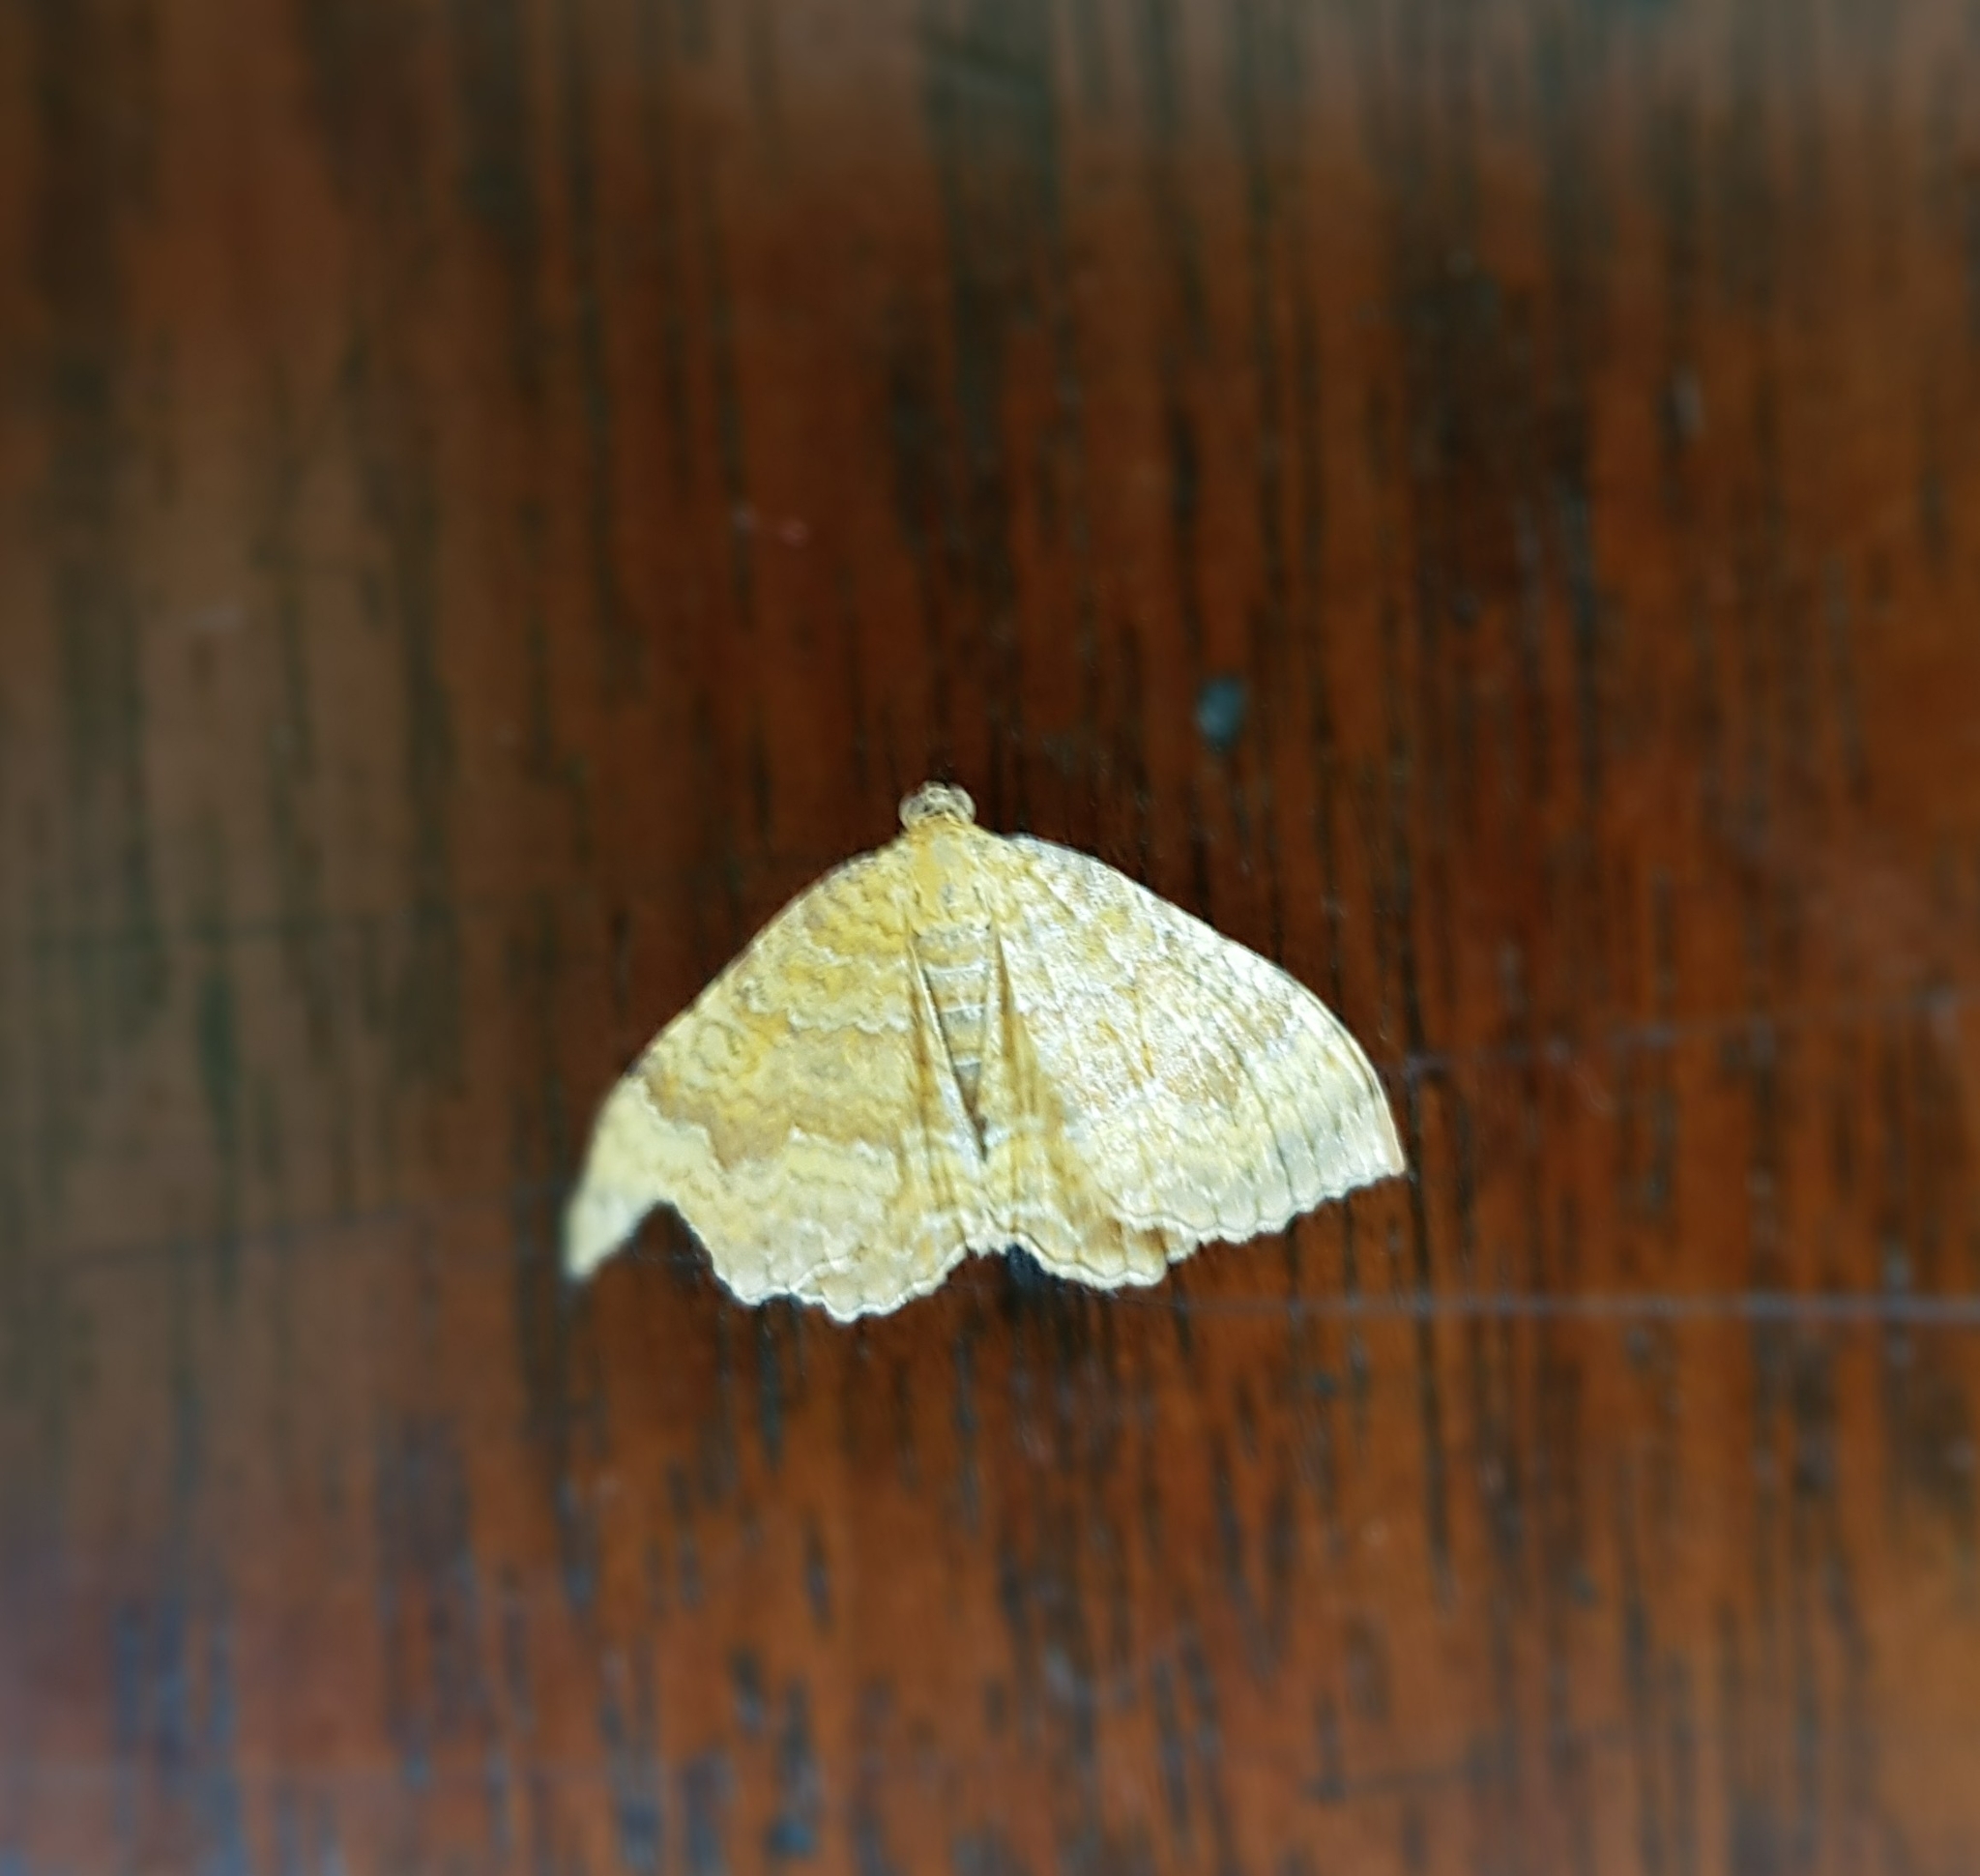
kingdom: Animalia
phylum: Arthropoda
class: Insecta
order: Lepidoptera
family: Geometridae
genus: Camptogramma
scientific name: Camptogramma bilineata
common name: Yellow shell
